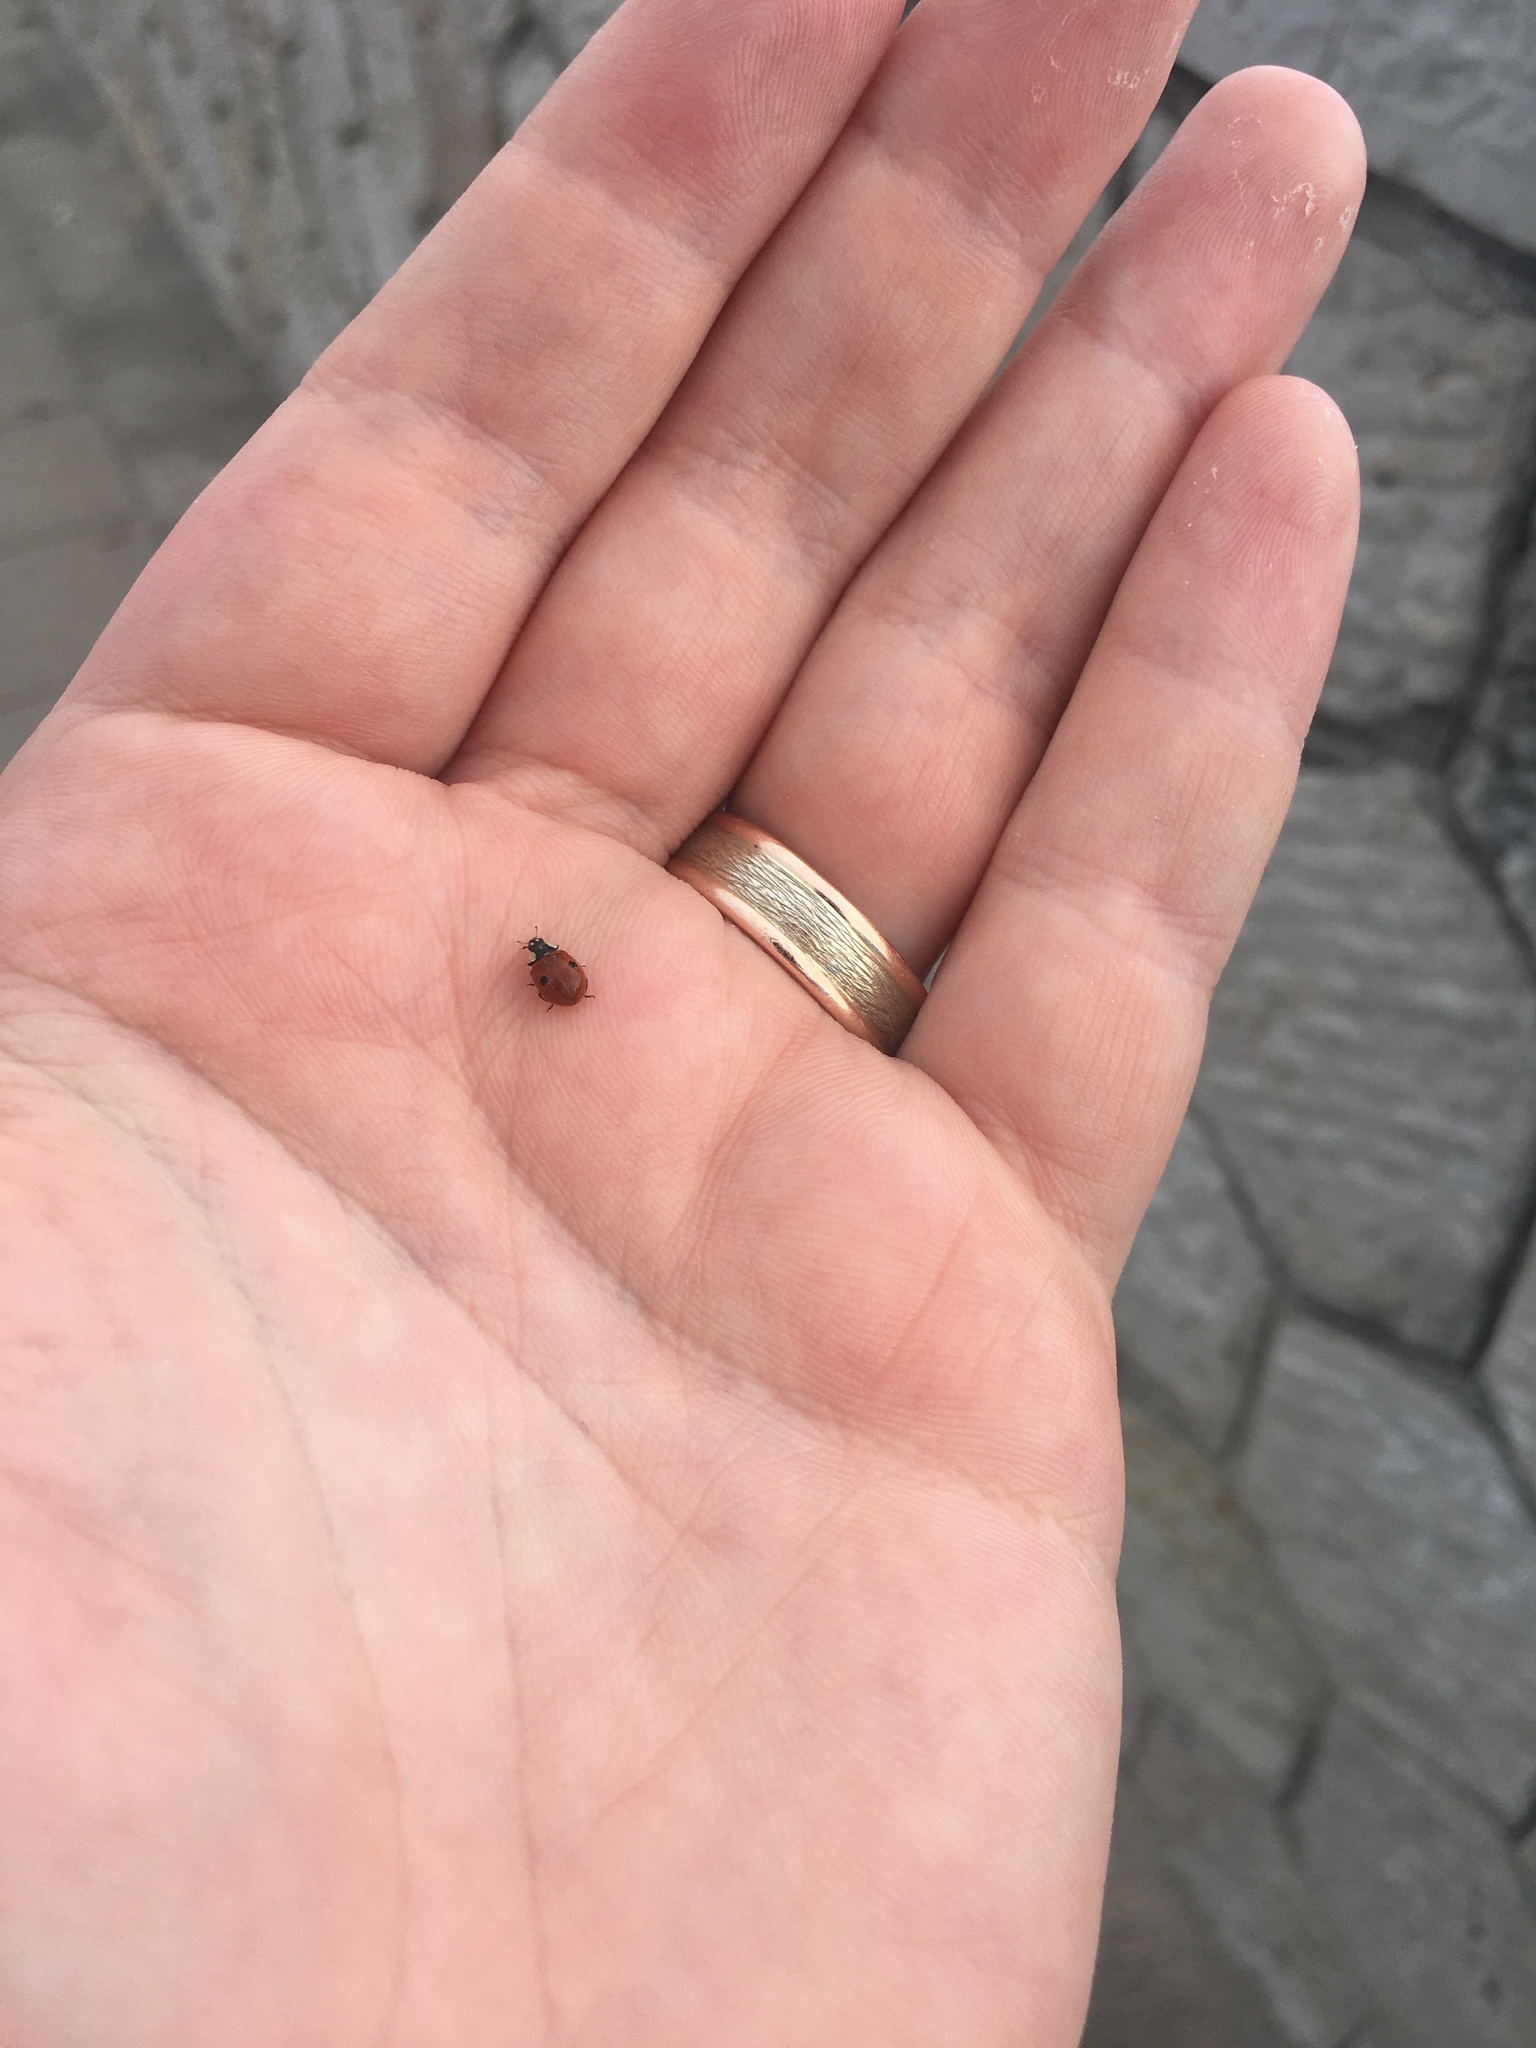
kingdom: Animalia
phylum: Arthropoda
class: Insecta
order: Coleoptera
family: Coccinellidae
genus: Adalia
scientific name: Adalia bipunctata
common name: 2-spot ladybird
